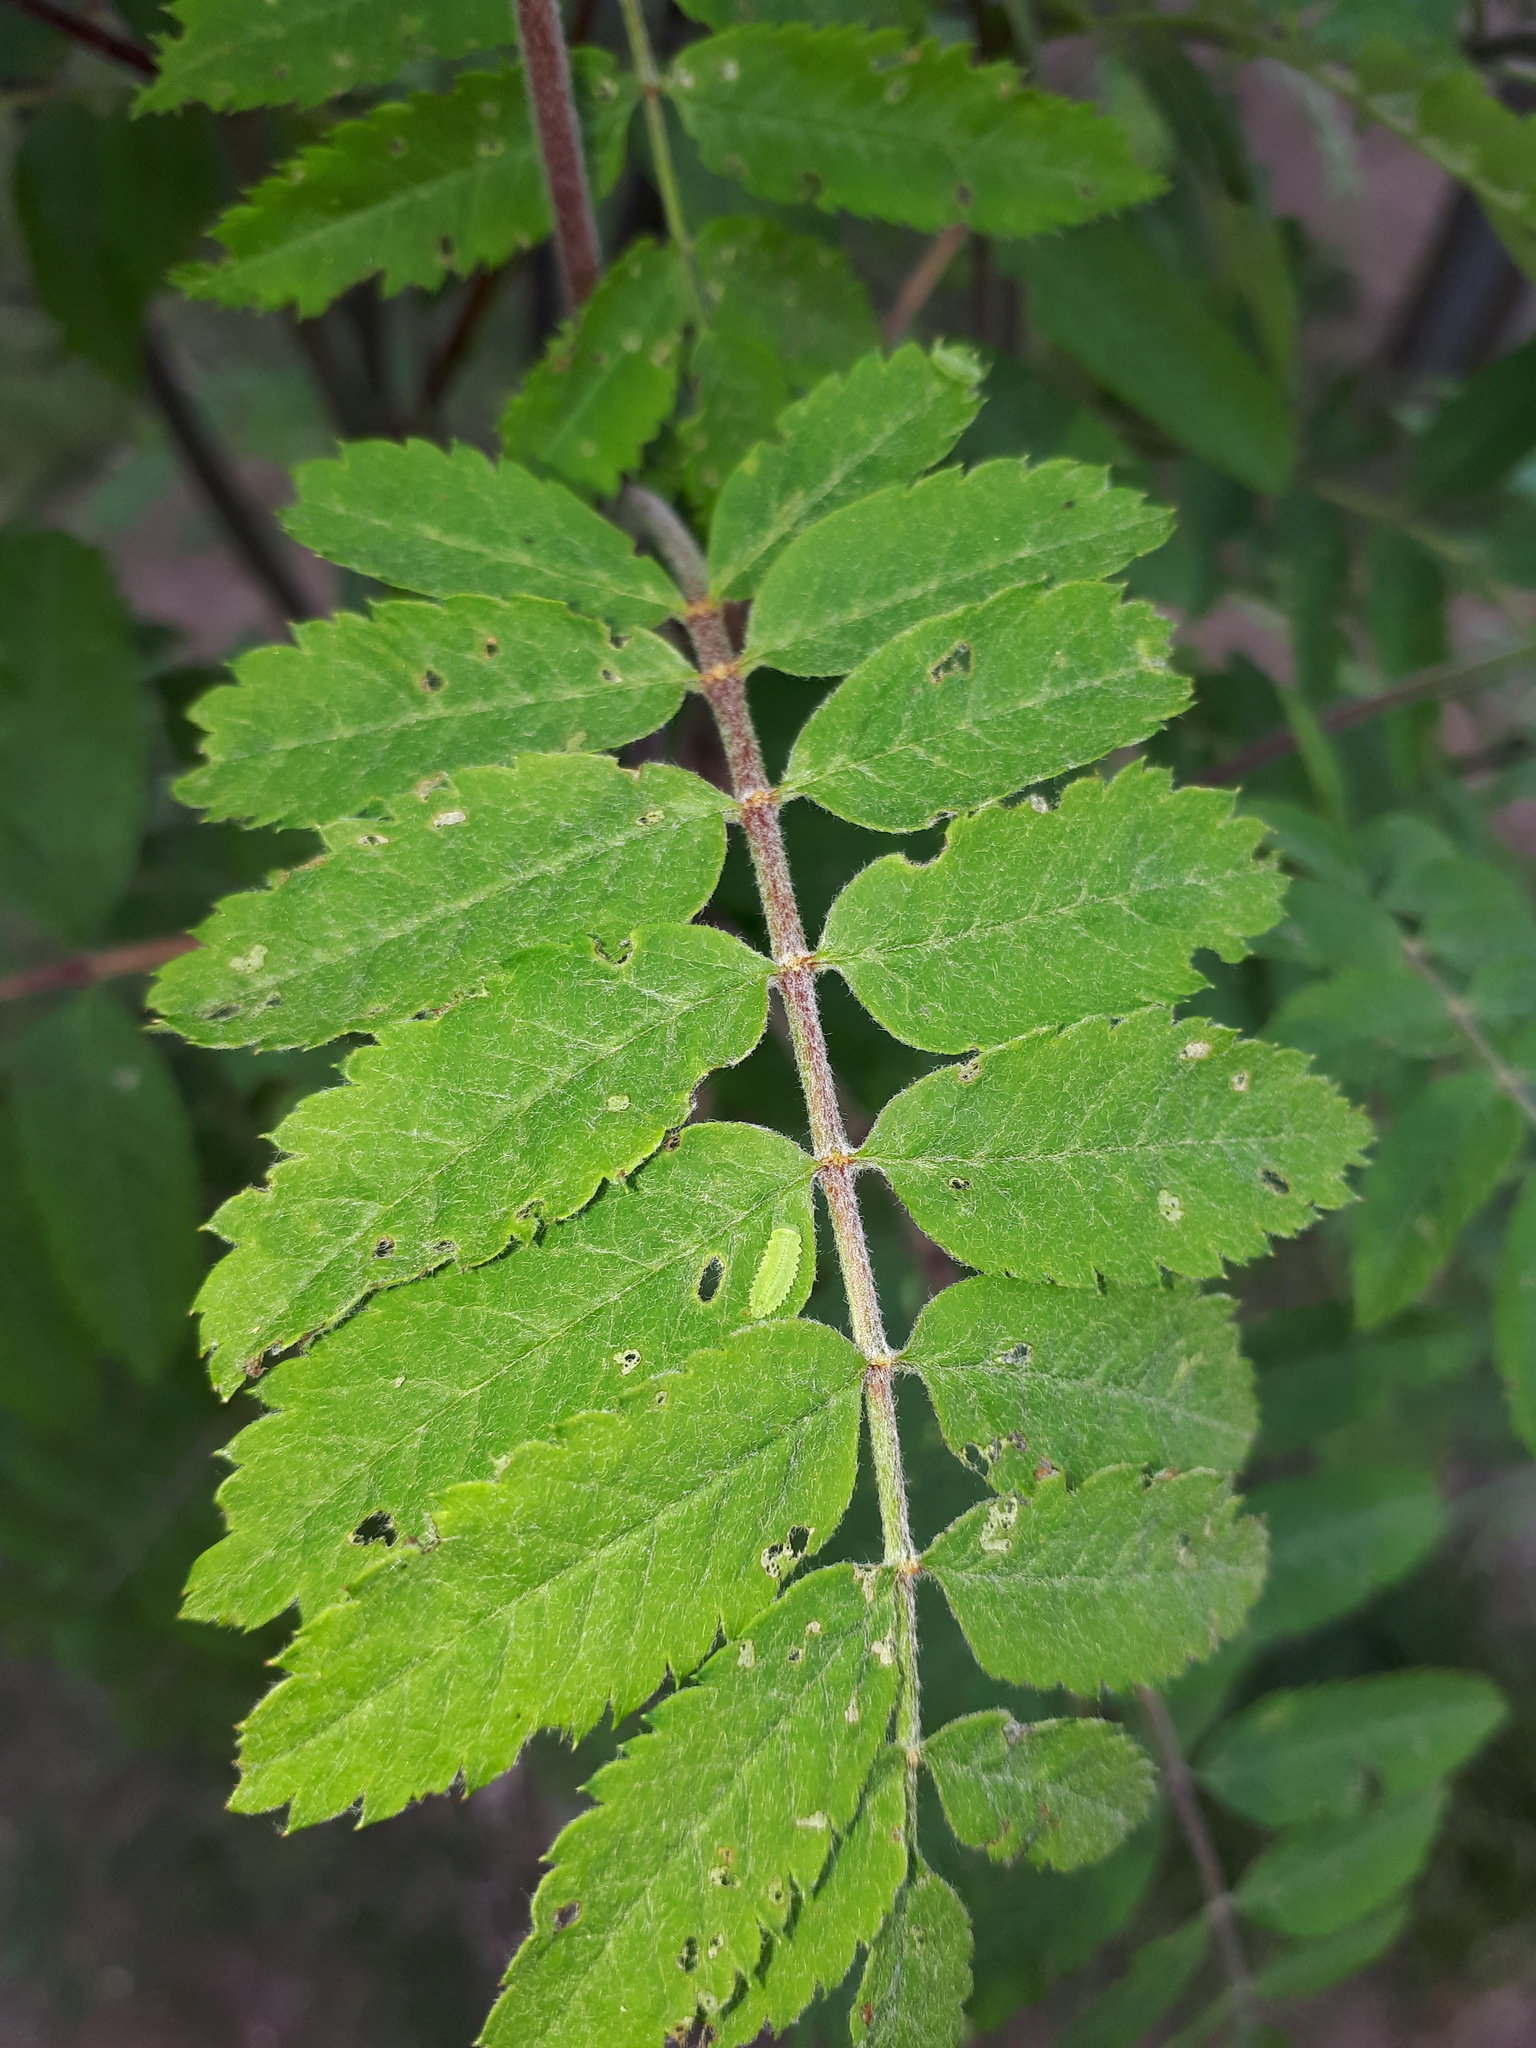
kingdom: Animalia
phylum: Arthropoda
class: Insecta
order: Coleoptera
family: Chrysomelidae
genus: Gonioctena
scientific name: Gonioctena quinquepunctata
